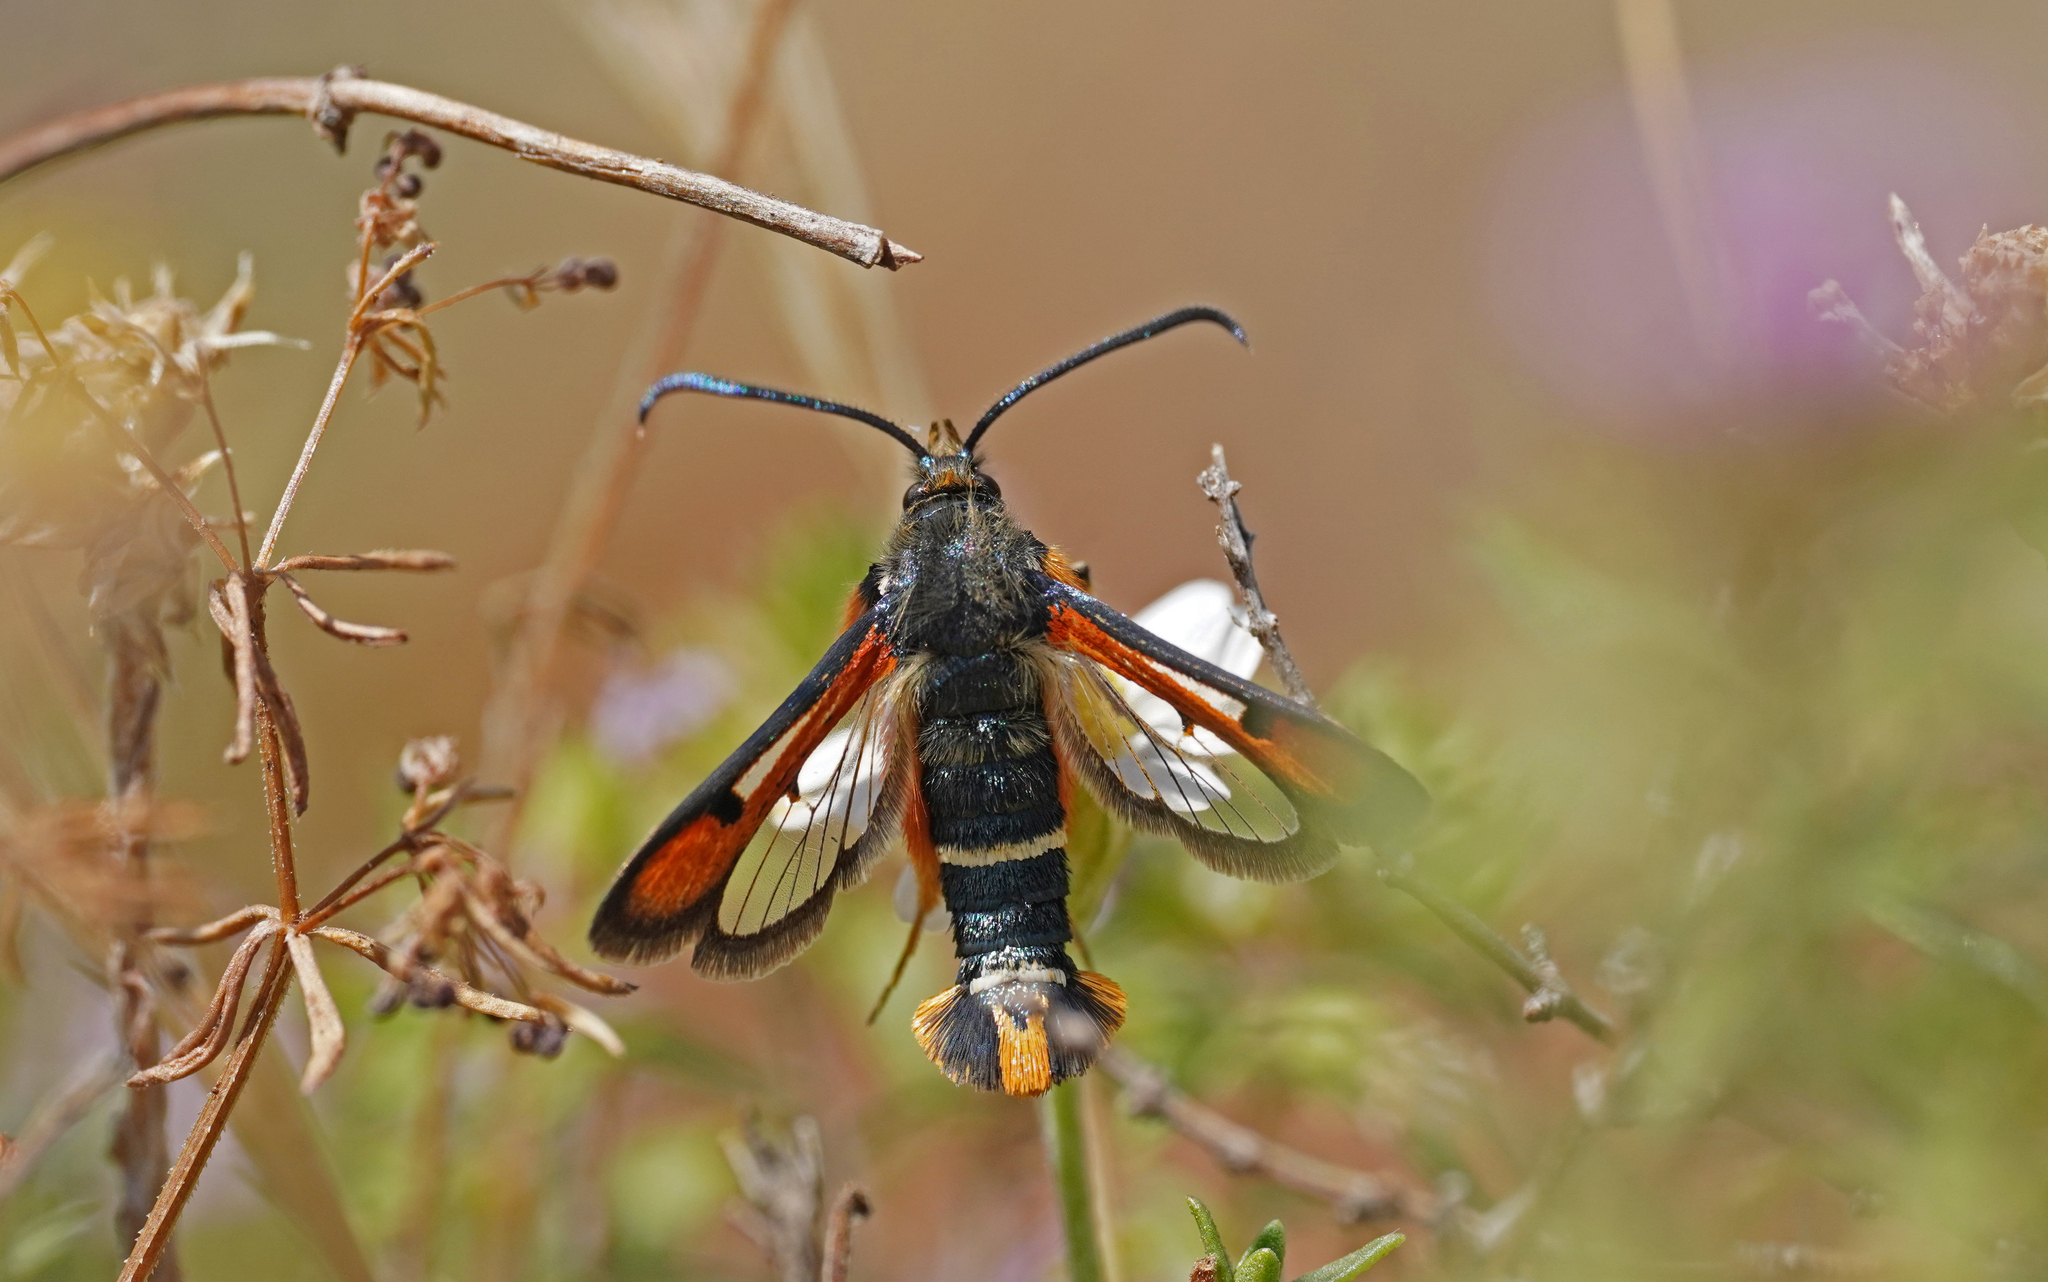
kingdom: Animalia
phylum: Arthropoda
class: Insecta
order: Lepidoptera
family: Sesiidae
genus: Pyropteron
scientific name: Pyropteron chrysidiforme
